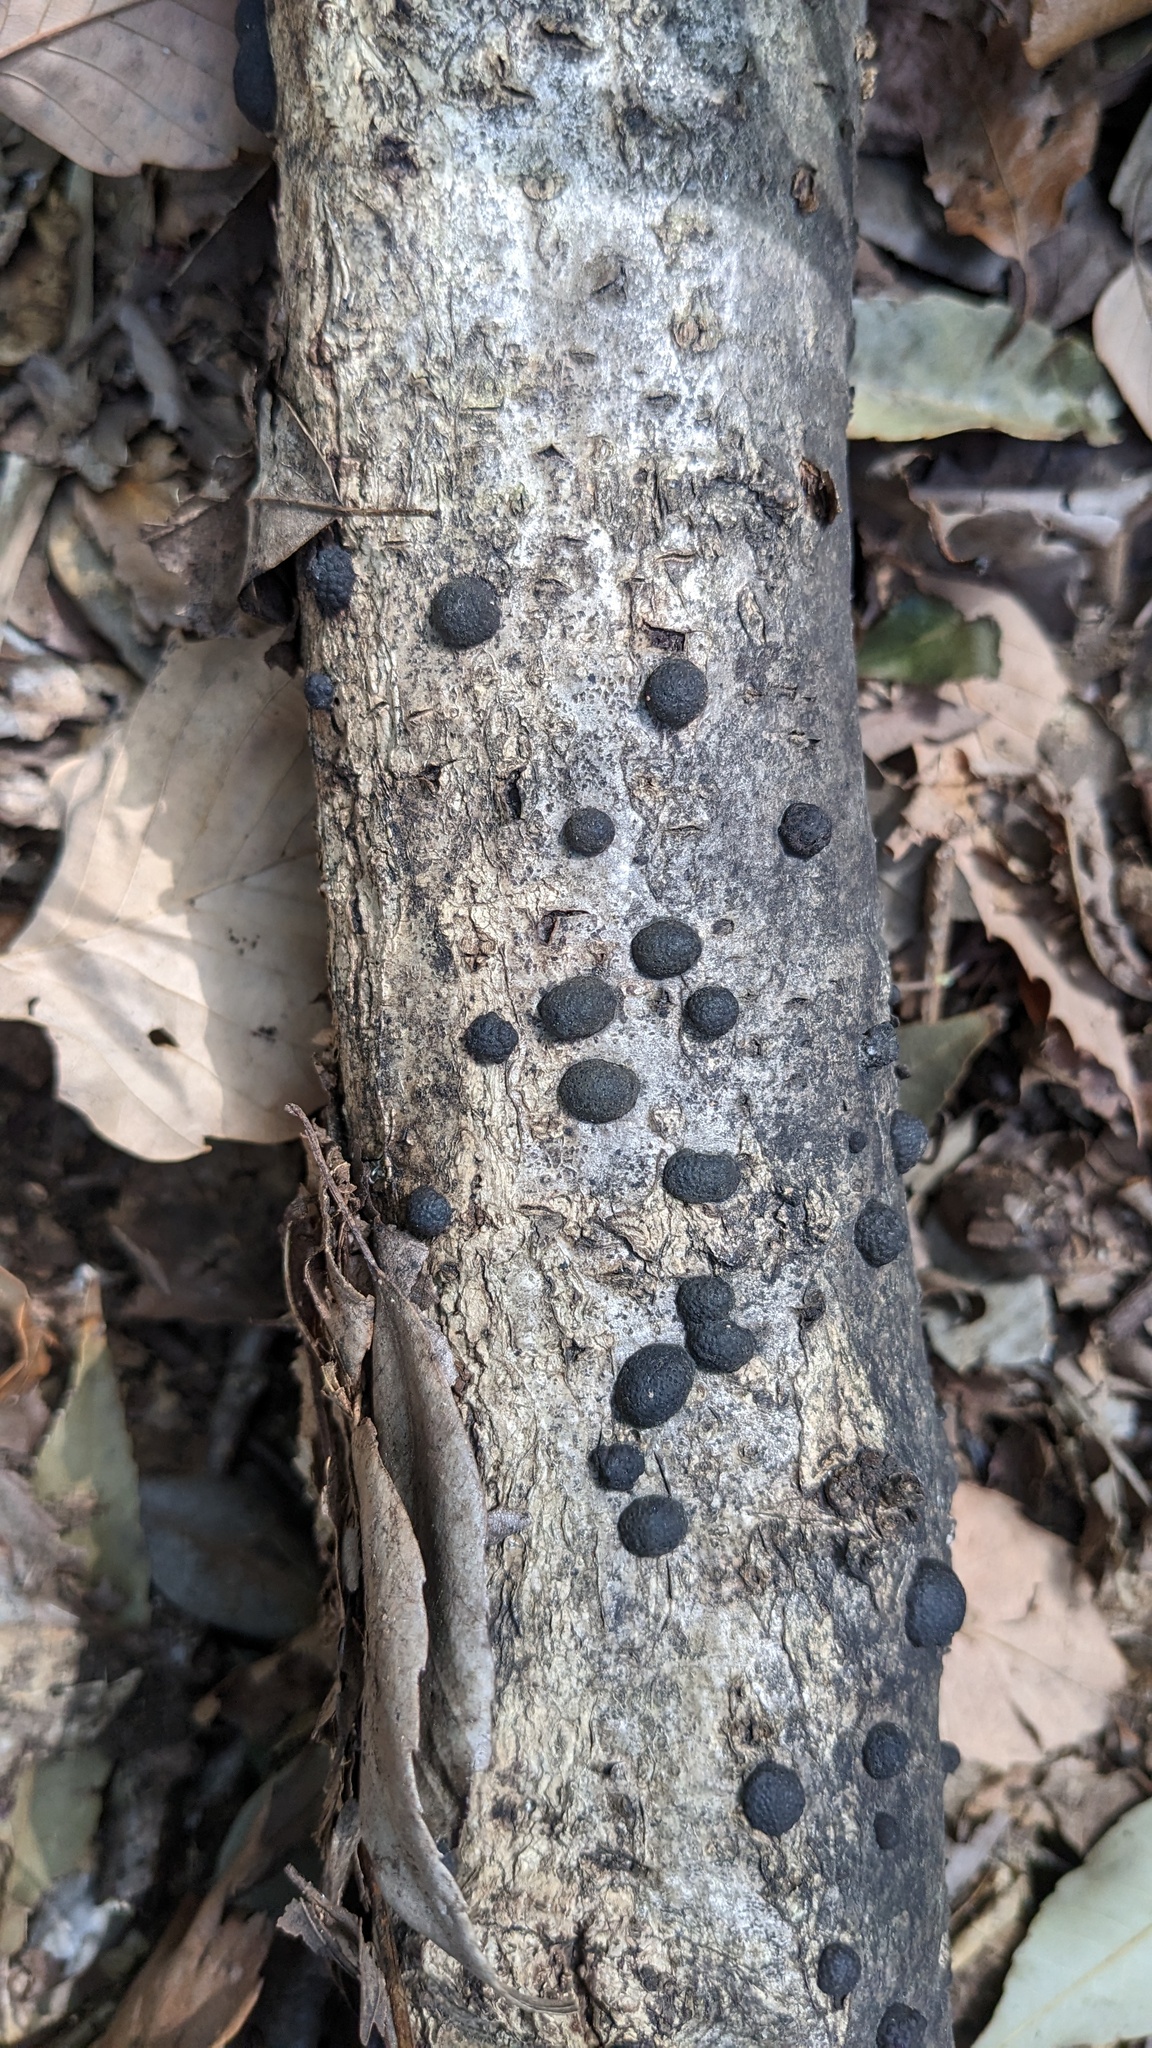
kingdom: Fungi
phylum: Ascomycota
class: Sordariomycetes
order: Xylariales
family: Hypoxylaceae
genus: Annulohypoxylon
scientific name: Annulohypoxylon truncatum
